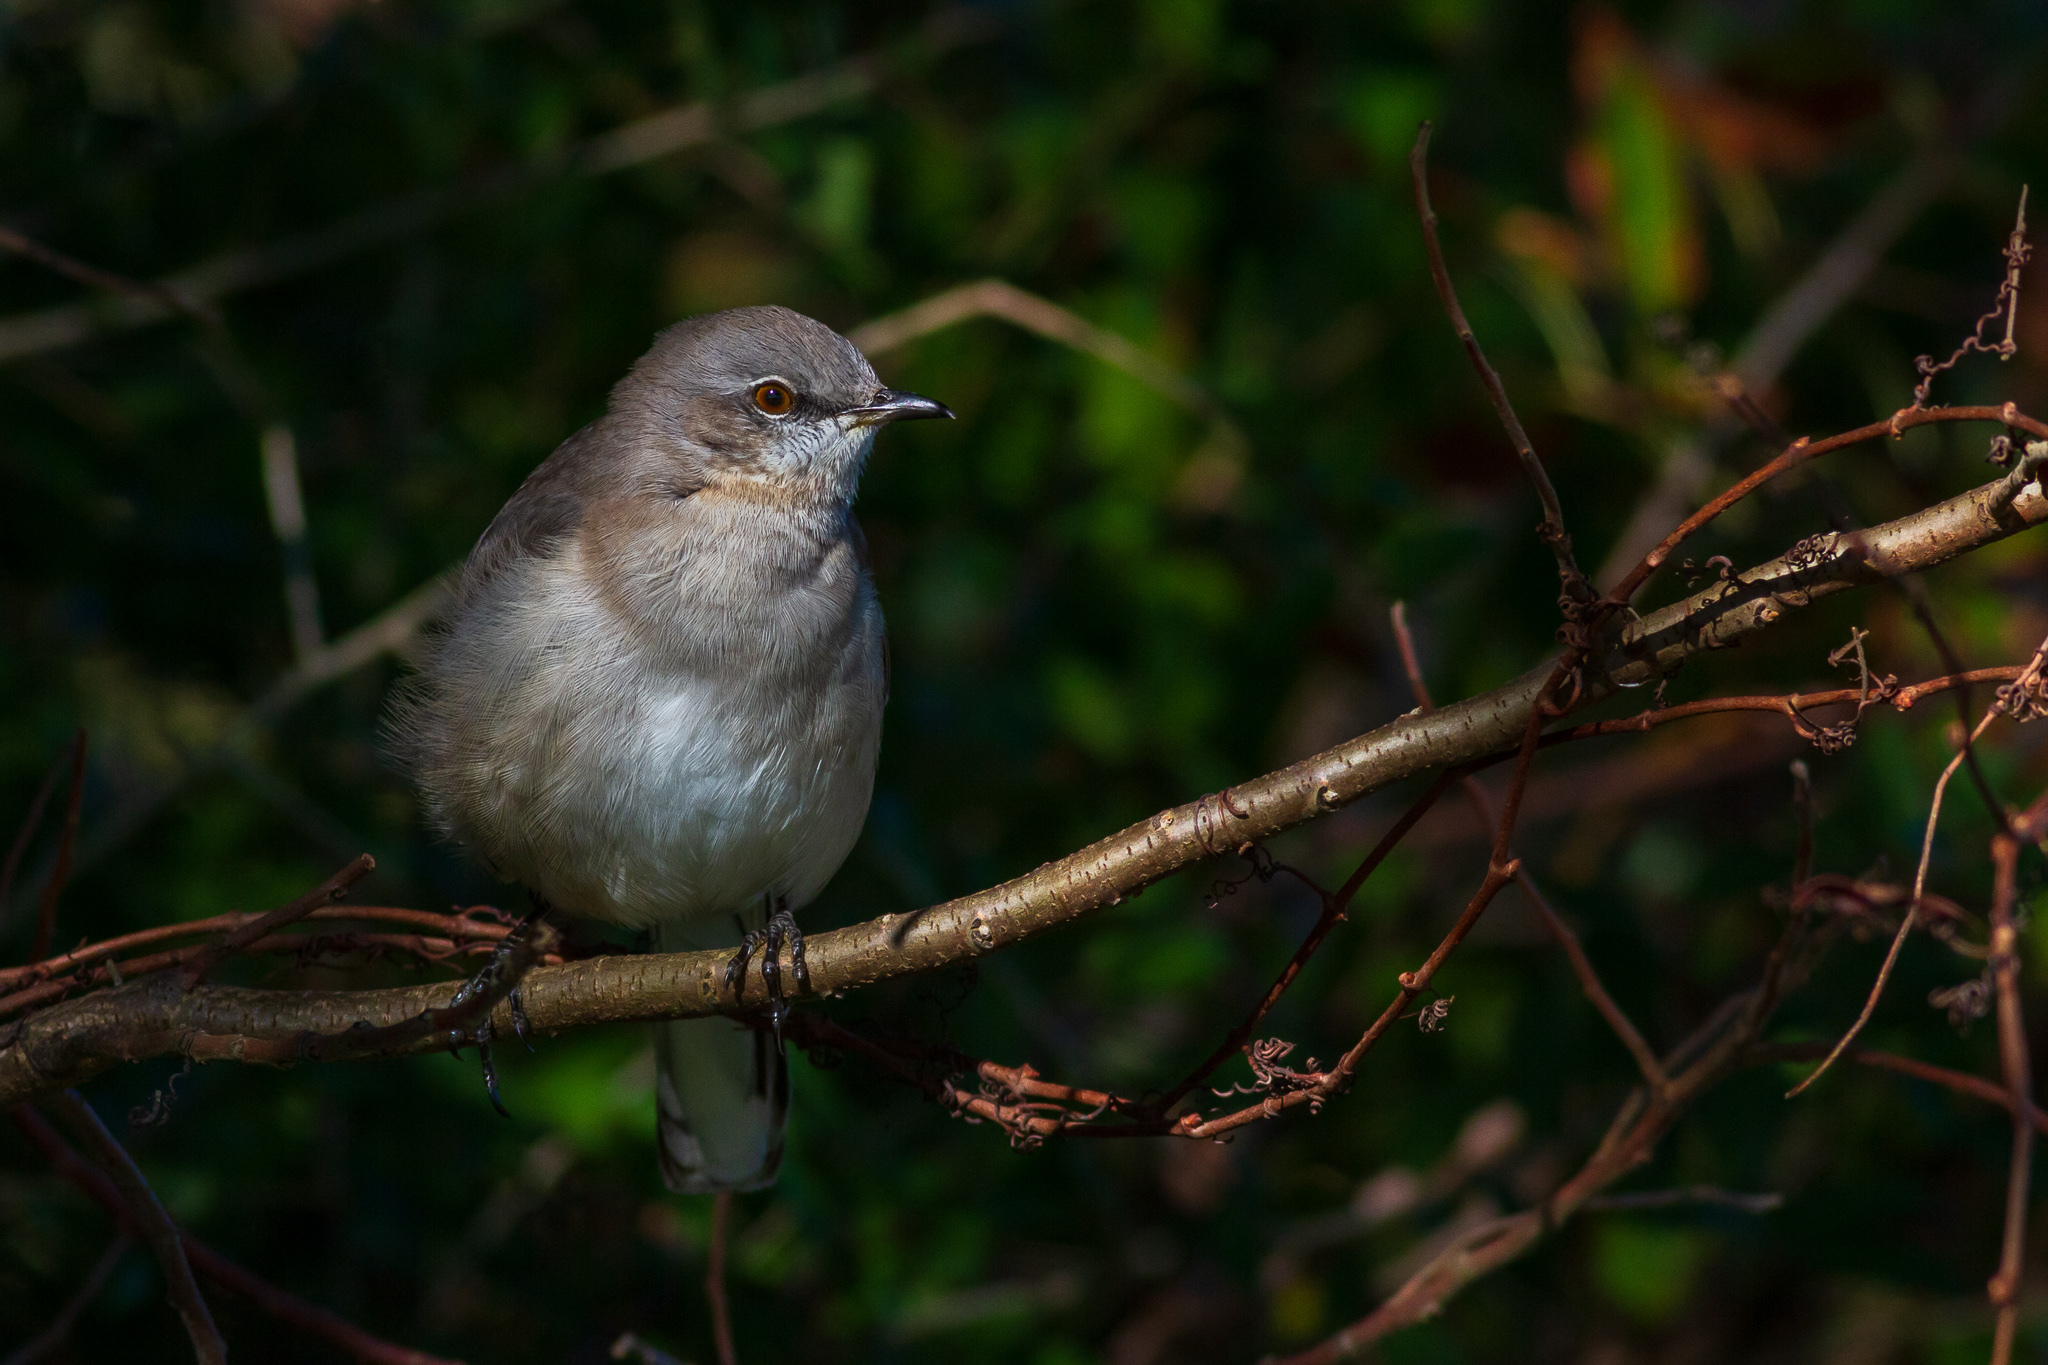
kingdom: Animalia
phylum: Chordata
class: Aves
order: Passeriformes
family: Mimidae
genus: Mimus
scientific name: Mimus polyglottos
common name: Northern mockingbird
